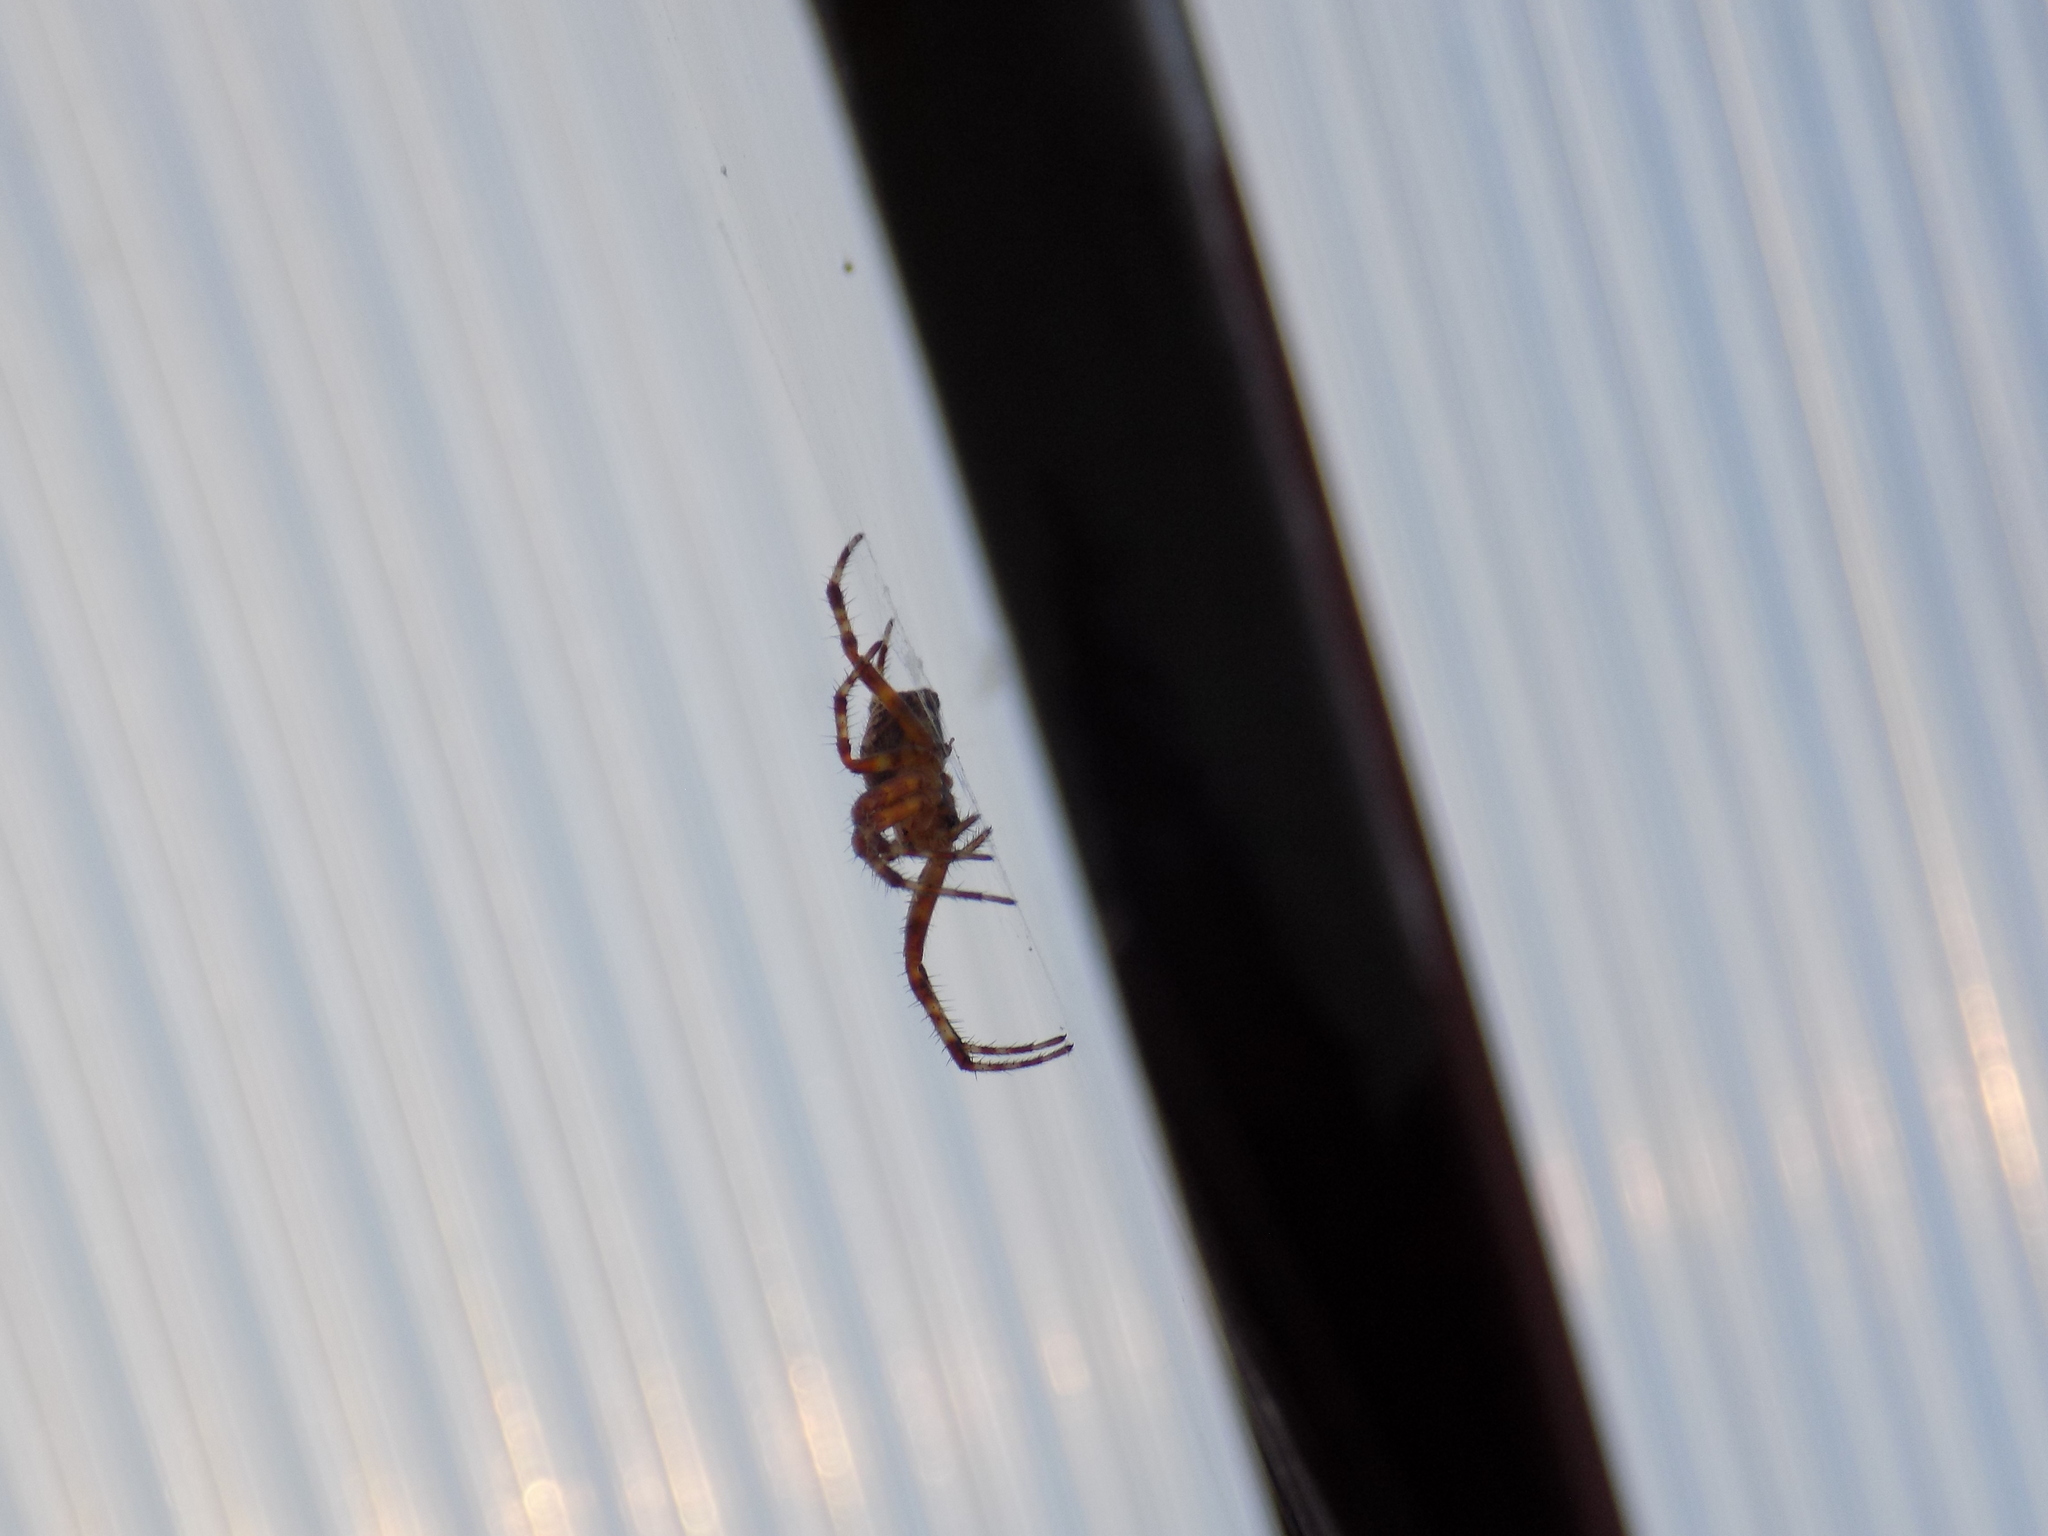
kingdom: Animalia
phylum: Arthropoda
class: Arachnida
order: Araneae
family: Araneidae
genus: Araneus
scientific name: Araneus diadematus
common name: Cross orbweaver
